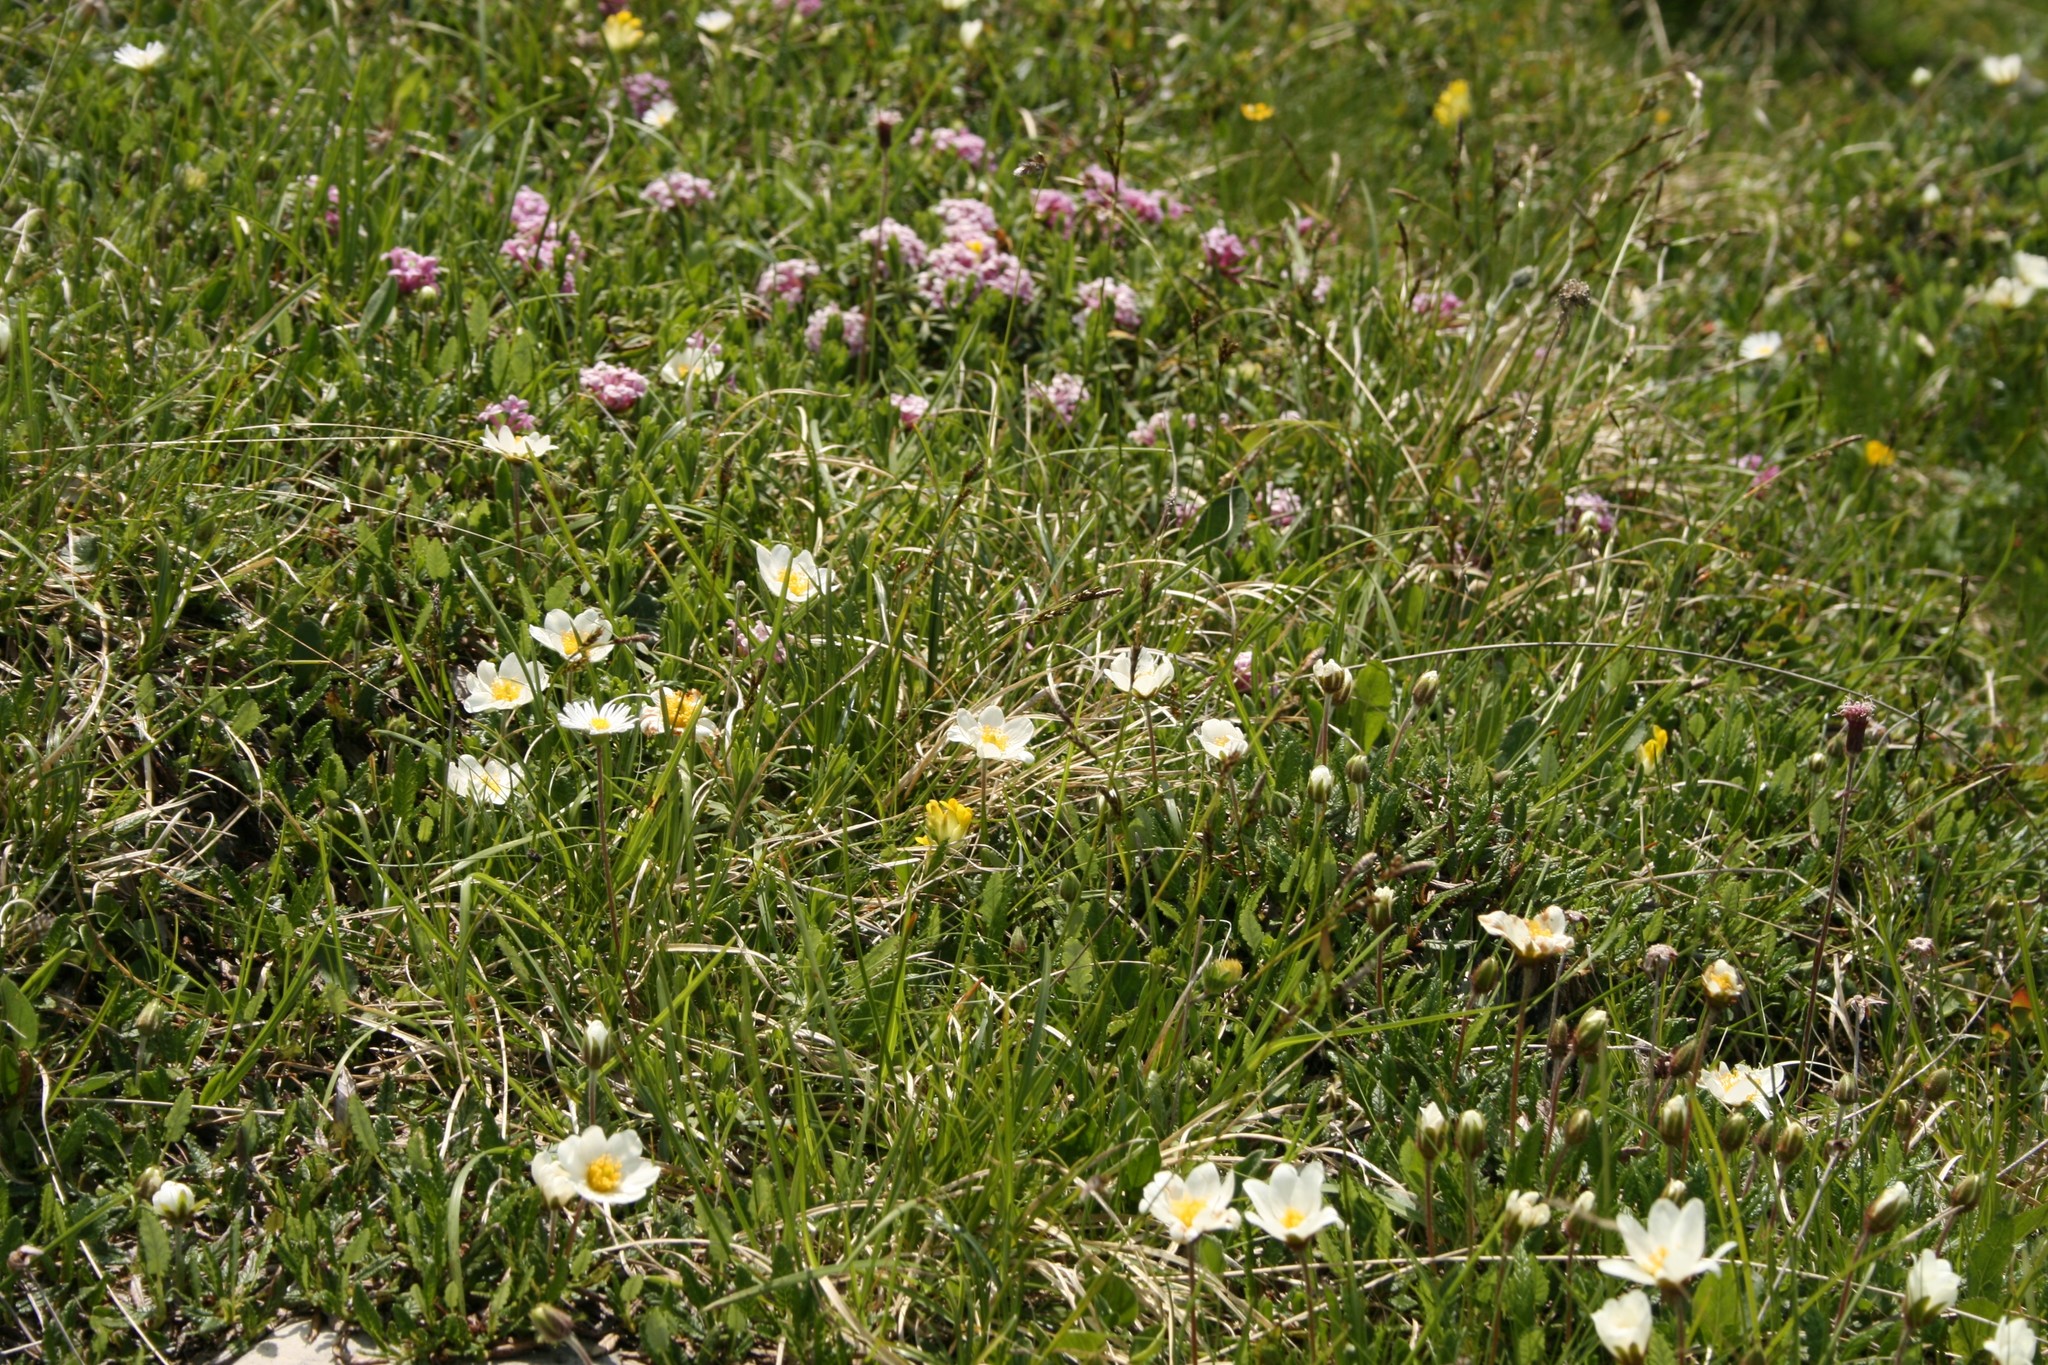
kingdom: Plantae
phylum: Tracheophyta
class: Magnoliopsida
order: Rosales
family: Rosaceae
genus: Dryas
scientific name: Dryas octopetala
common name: Eight-petal mountain-avens
